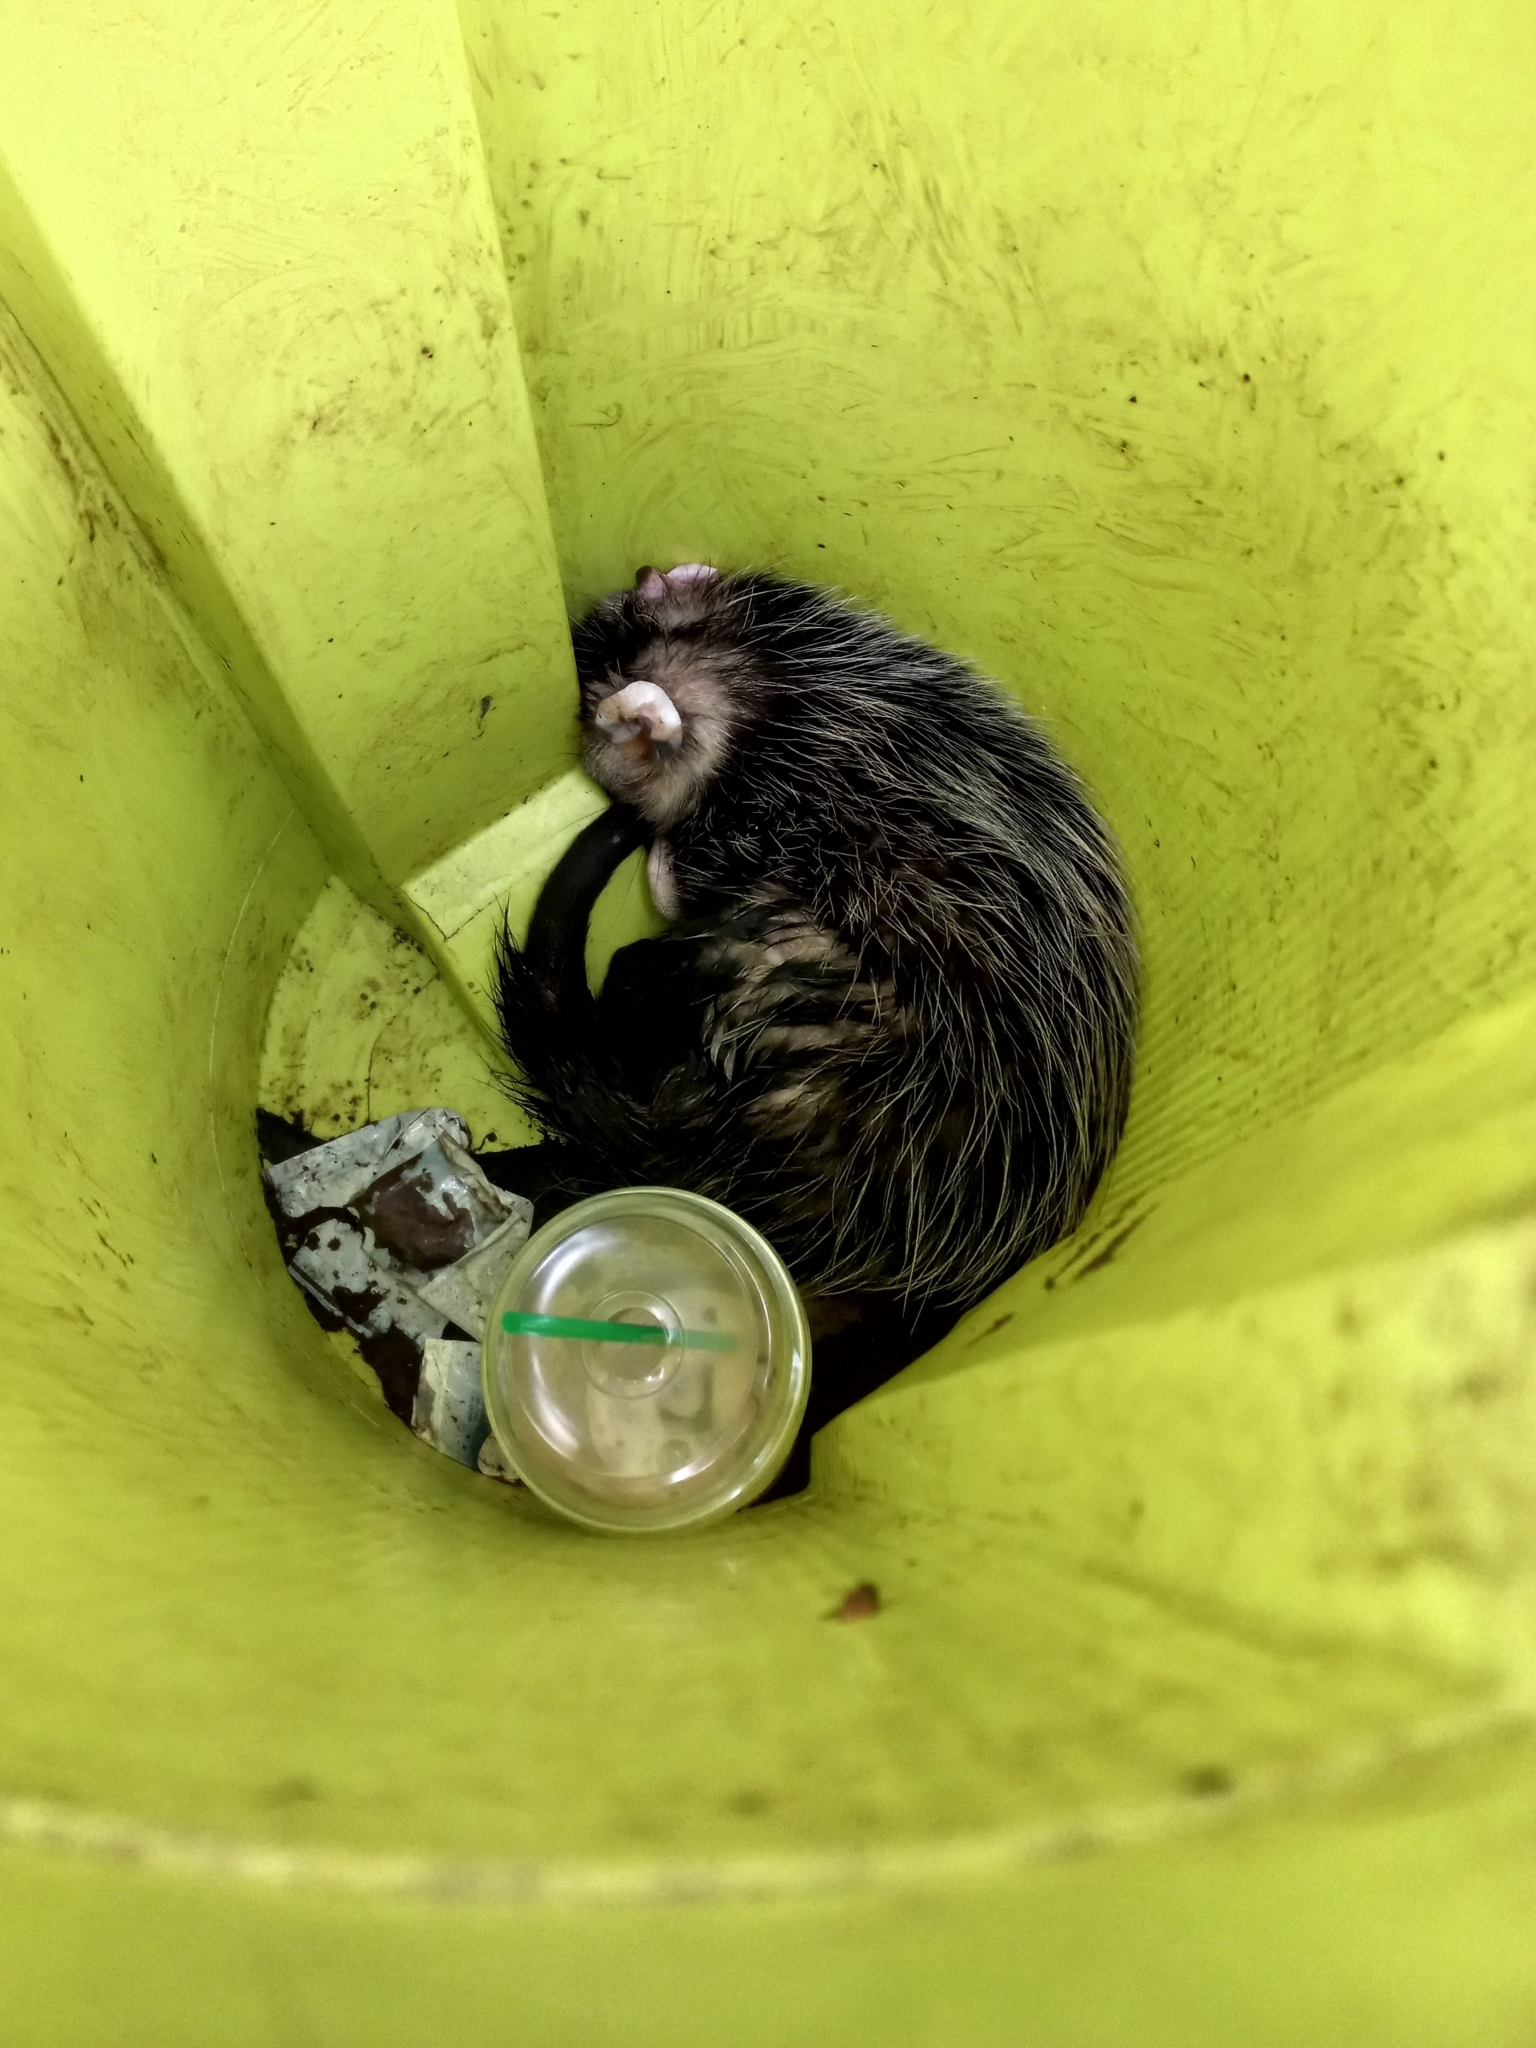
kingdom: Animalia
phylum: Chordata
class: Mammalia
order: Didelphimorphia
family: Didelphidae
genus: Didelphis
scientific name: Didelphis albiventris
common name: White-eared opossum
